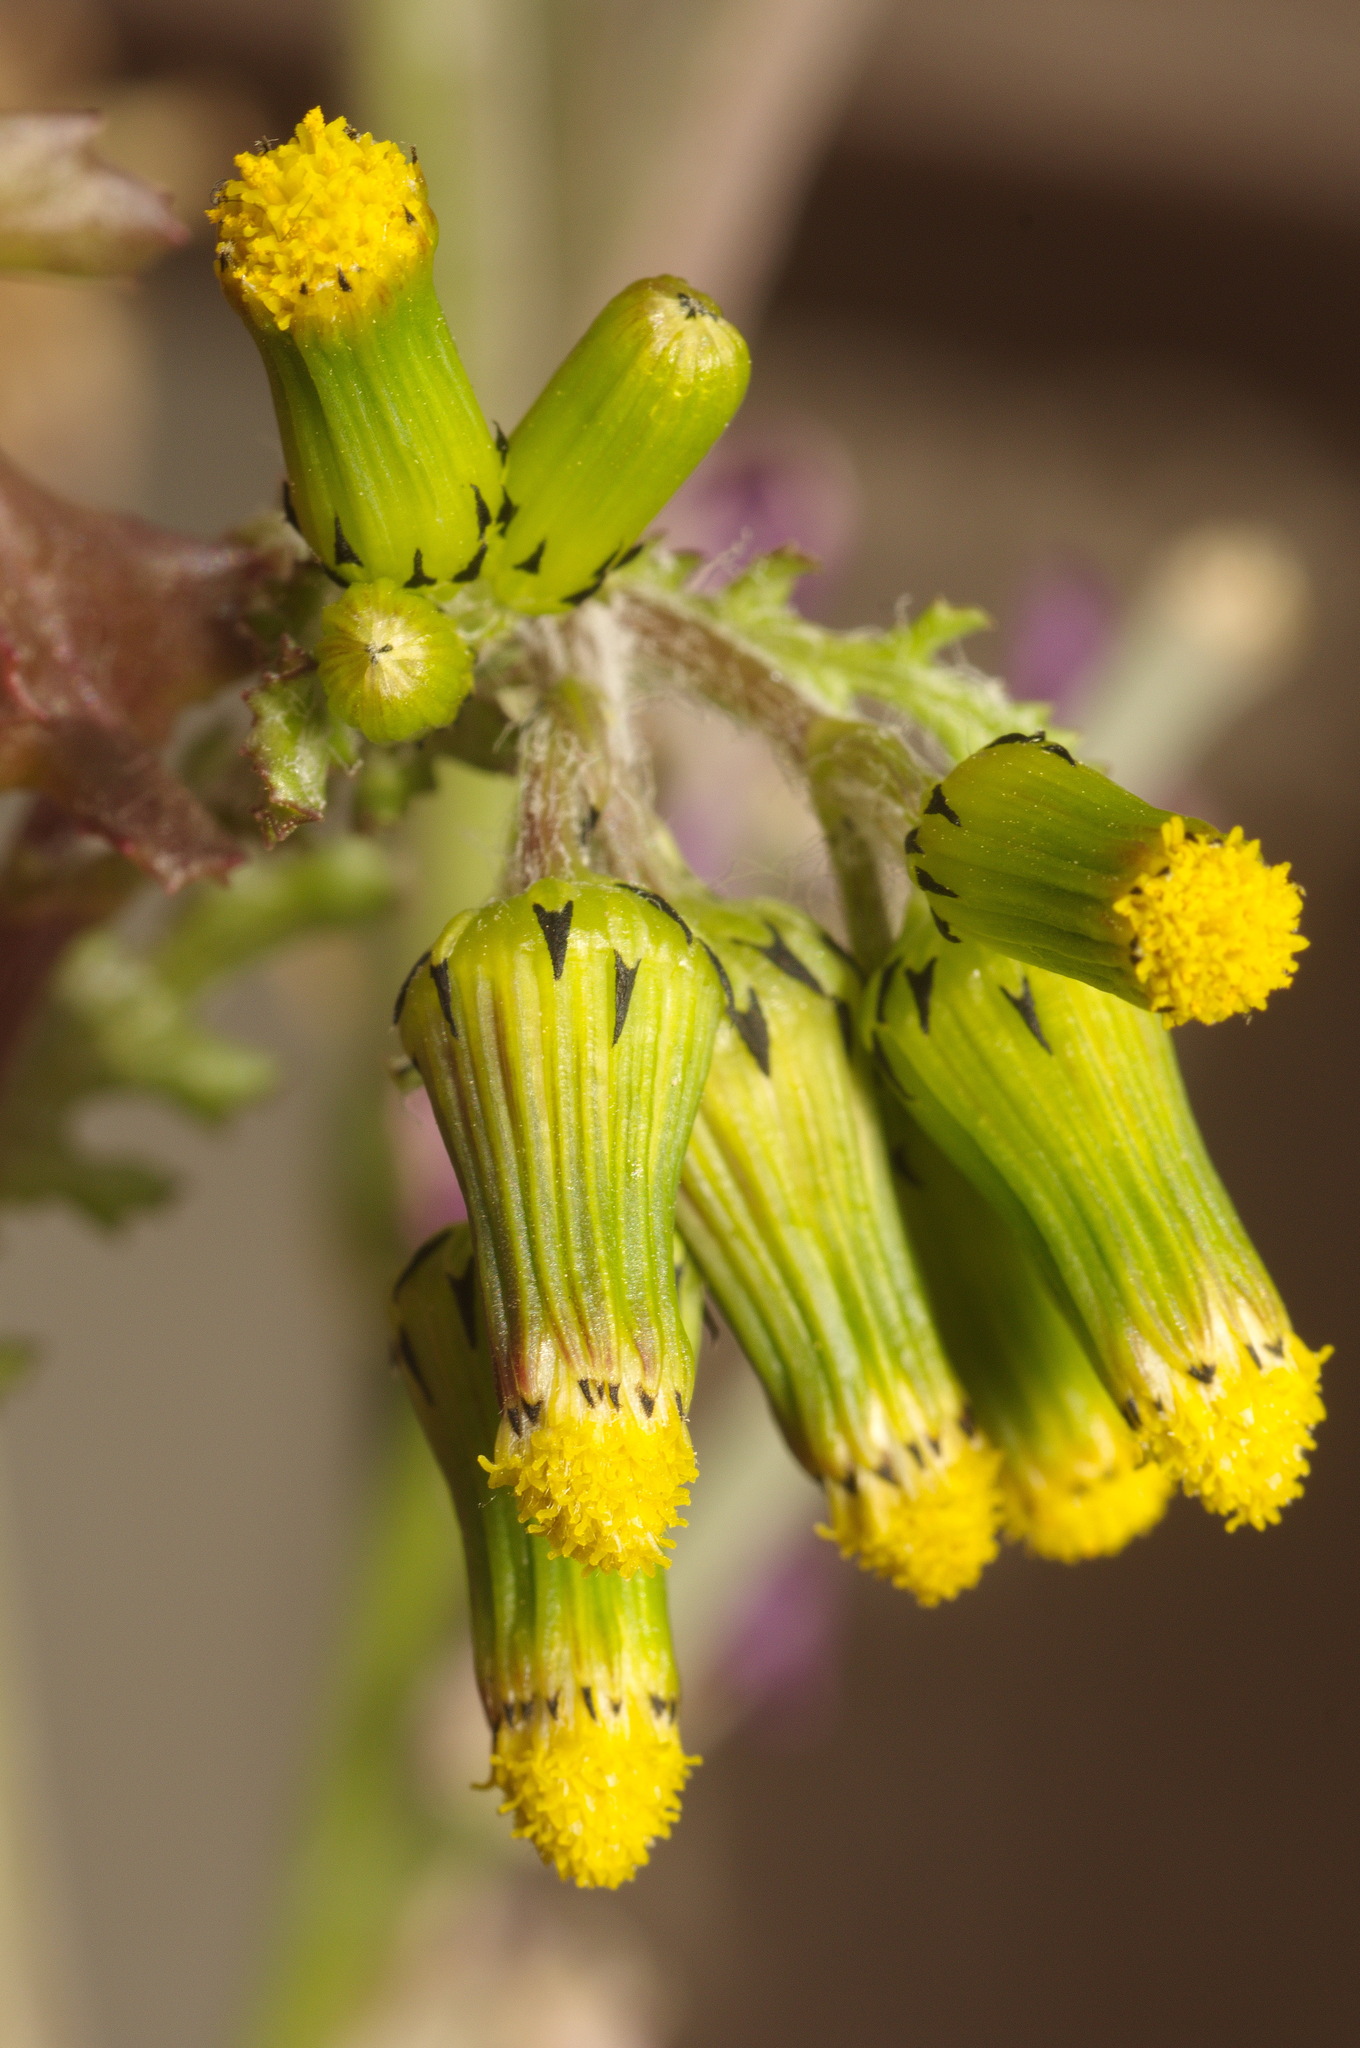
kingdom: Plantae
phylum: Tracheophyta
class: Magnoliopsida
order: Asterales
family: Asteraceae
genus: Senecio
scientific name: Senecio vulgaris
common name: Old-man-in-the-spring
